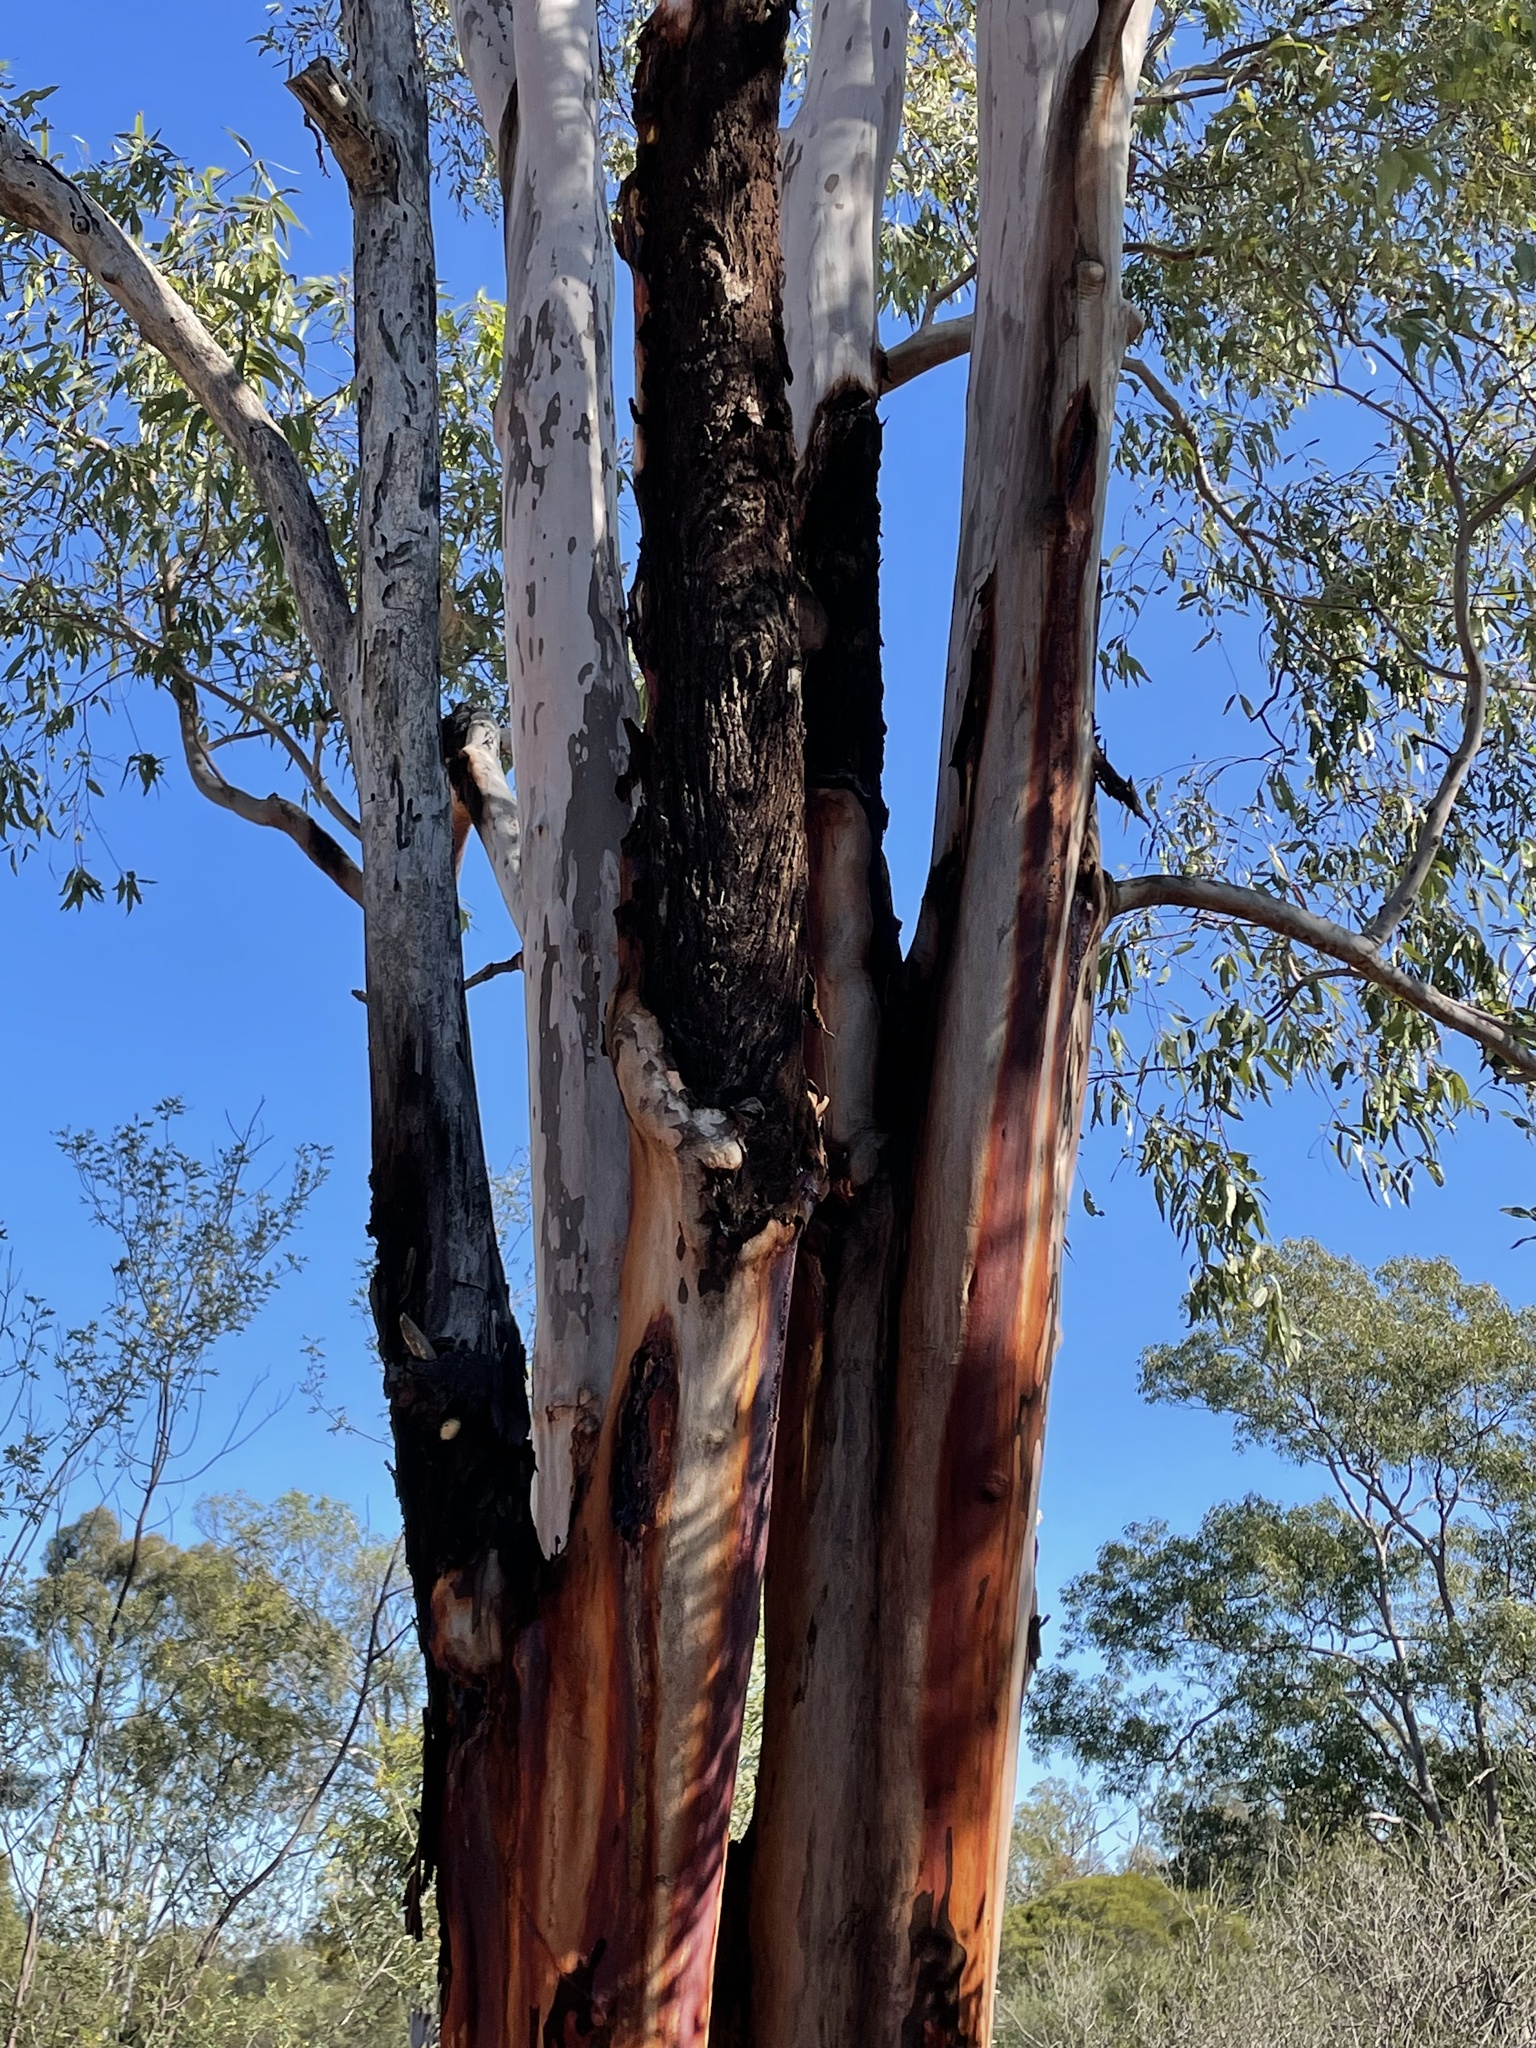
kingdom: Plantae
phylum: Tracheophyta
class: Magnoliopsida
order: Myrtales
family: Myrtaceae
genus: Angophora
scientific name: Angophora leiocarpa
